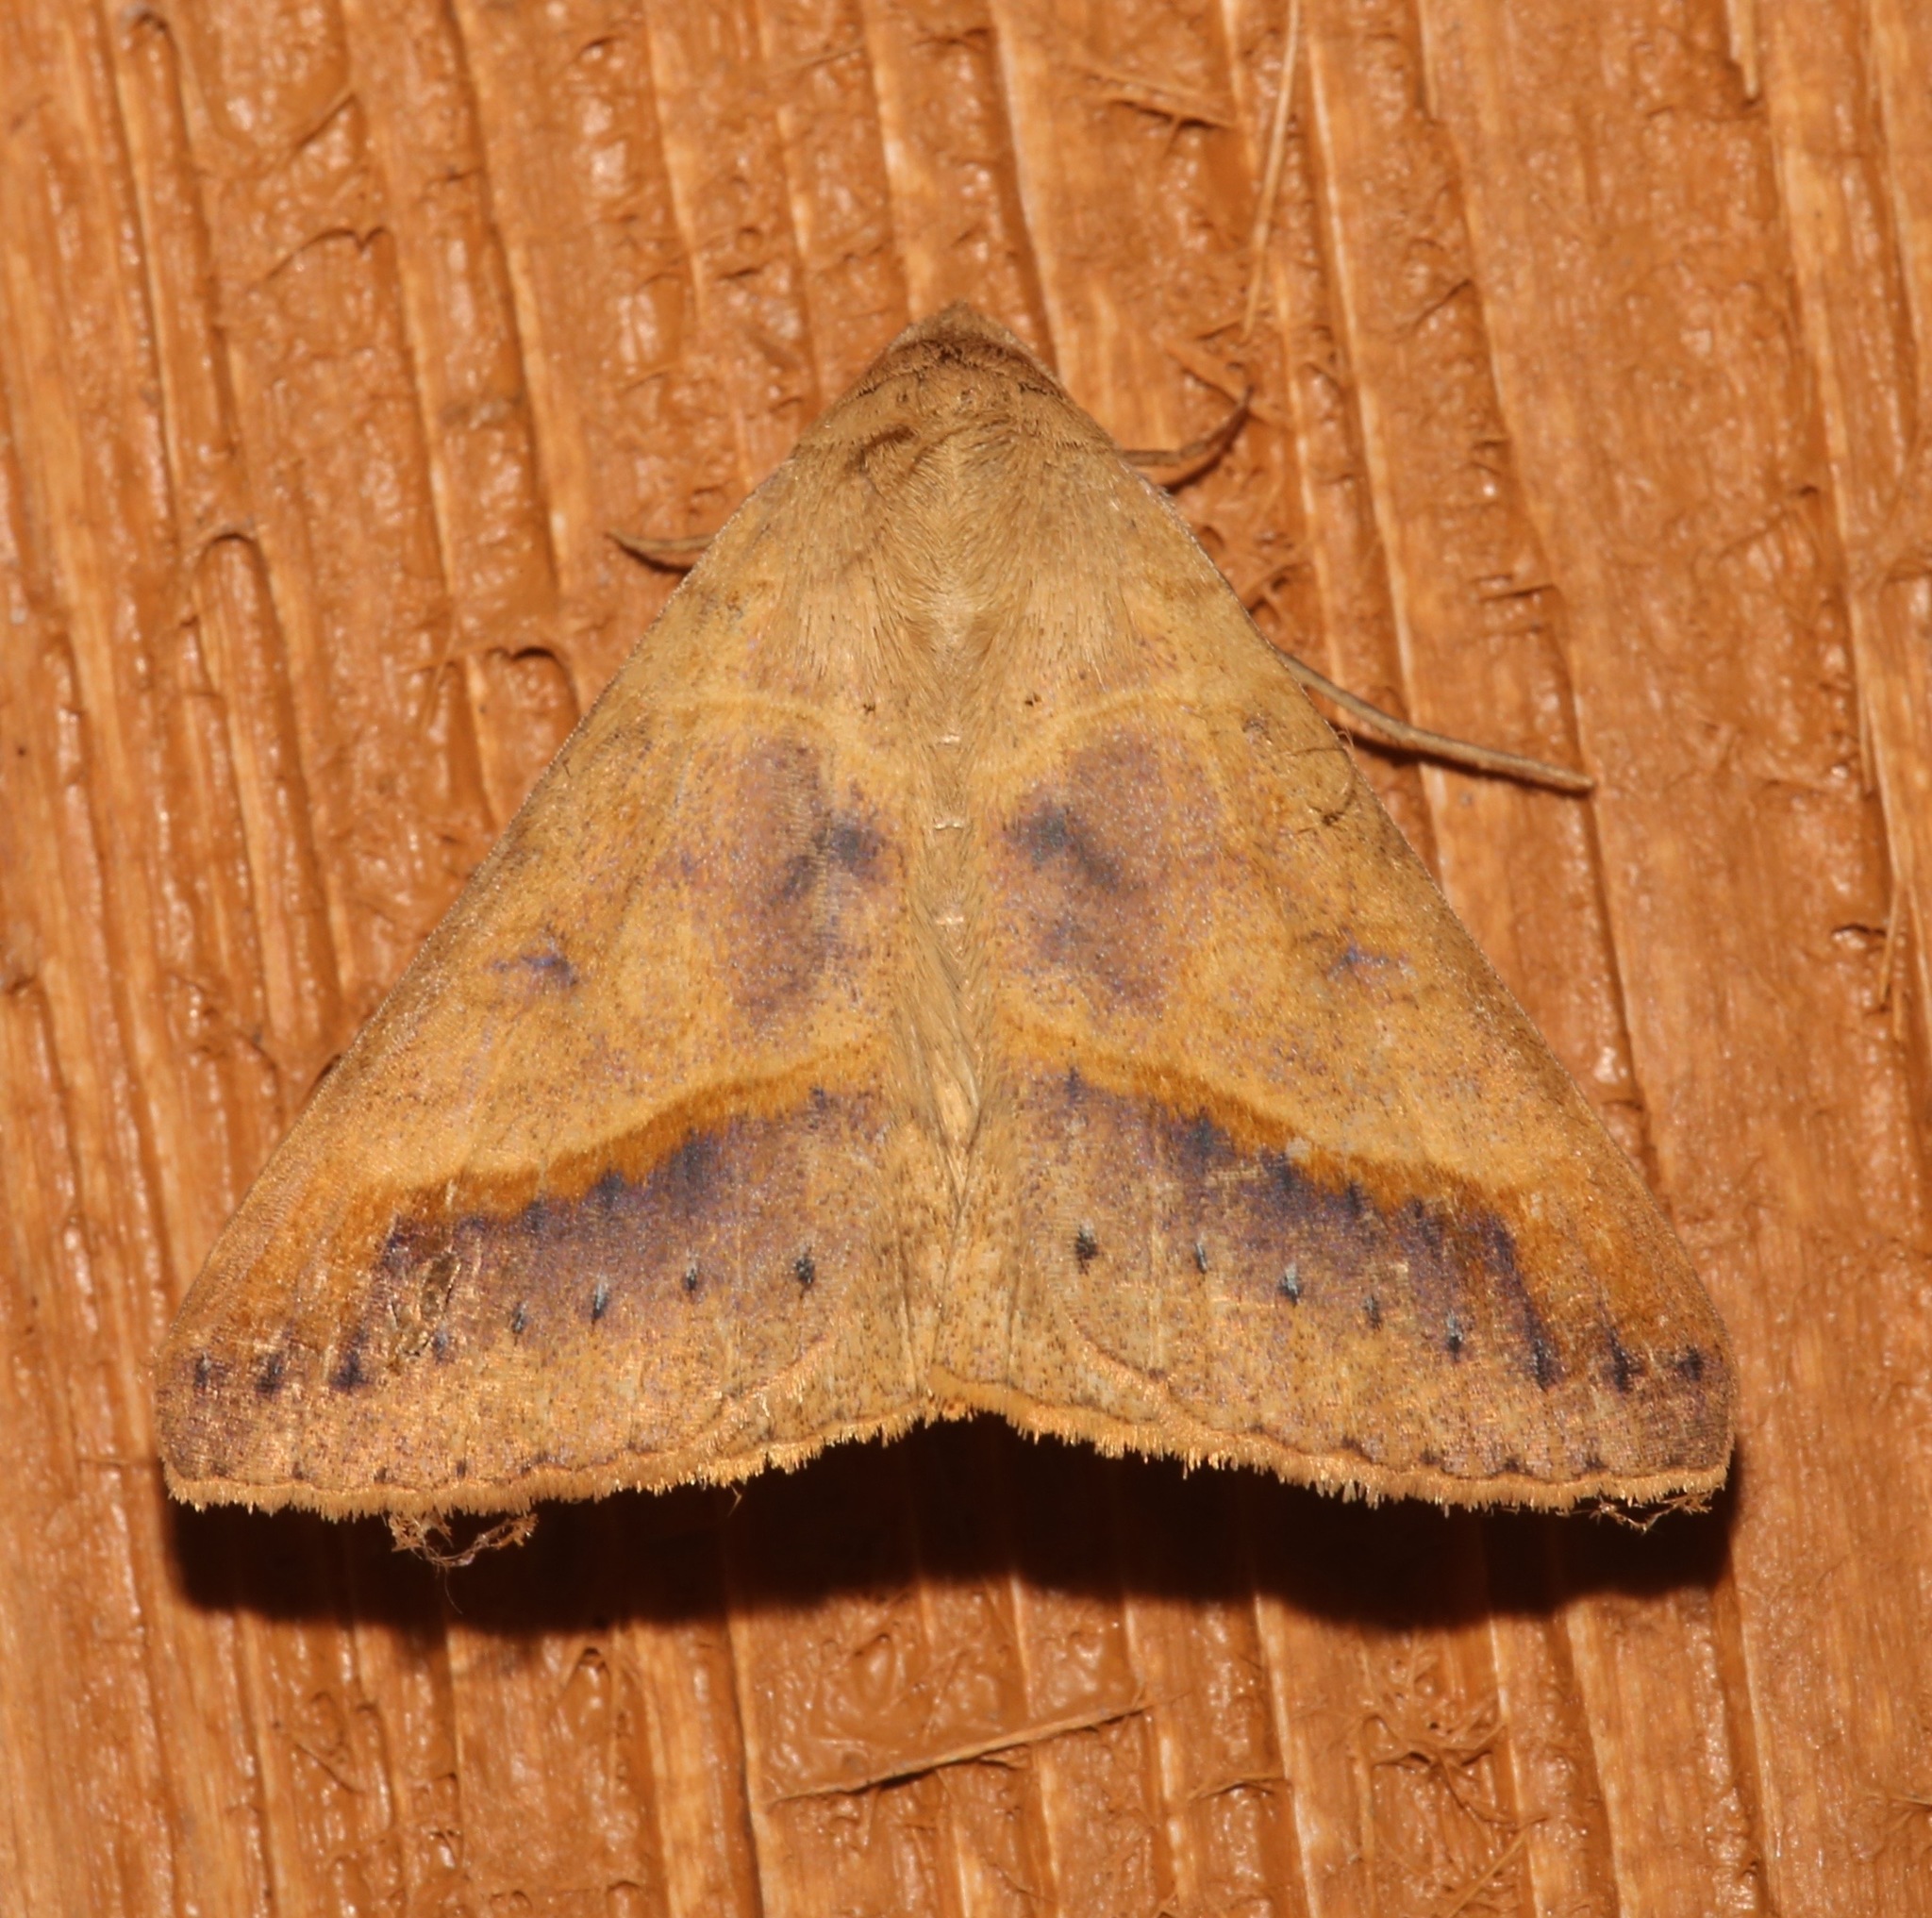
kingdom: Animalia
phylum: Arthropoda
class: Insecta
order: Lepidoptera
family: Erebidae
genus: Mocis
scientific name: Mocis disseverans
